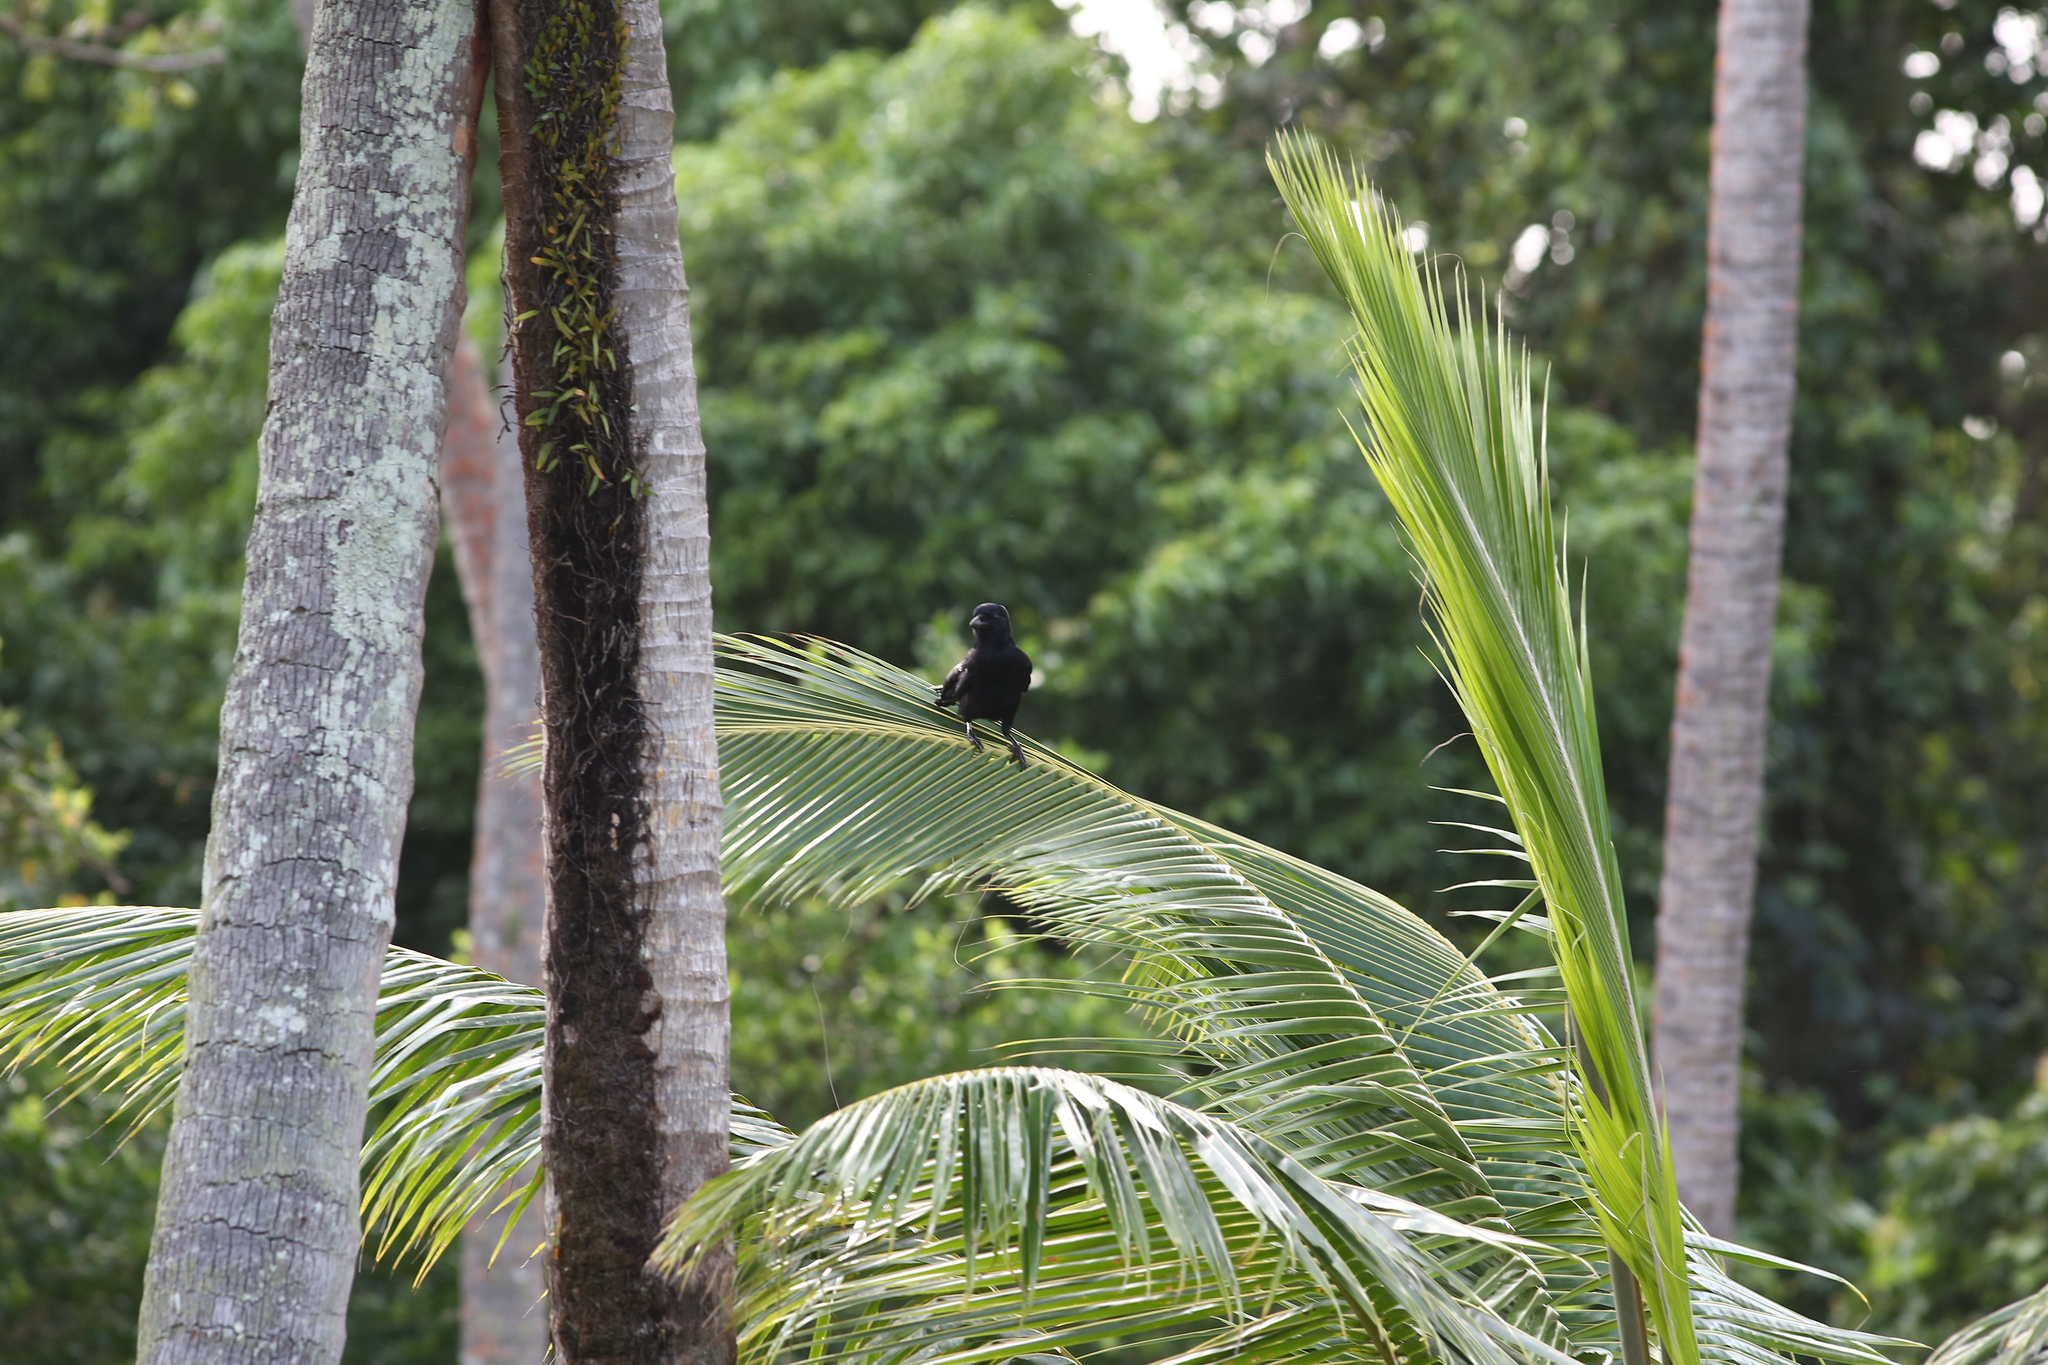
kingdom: Animalia
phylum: Chordata
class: Aves
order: Passeriformes
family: Corvidae
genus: Corvus
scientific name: Corvus moneduloides
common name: New caledonian crow
